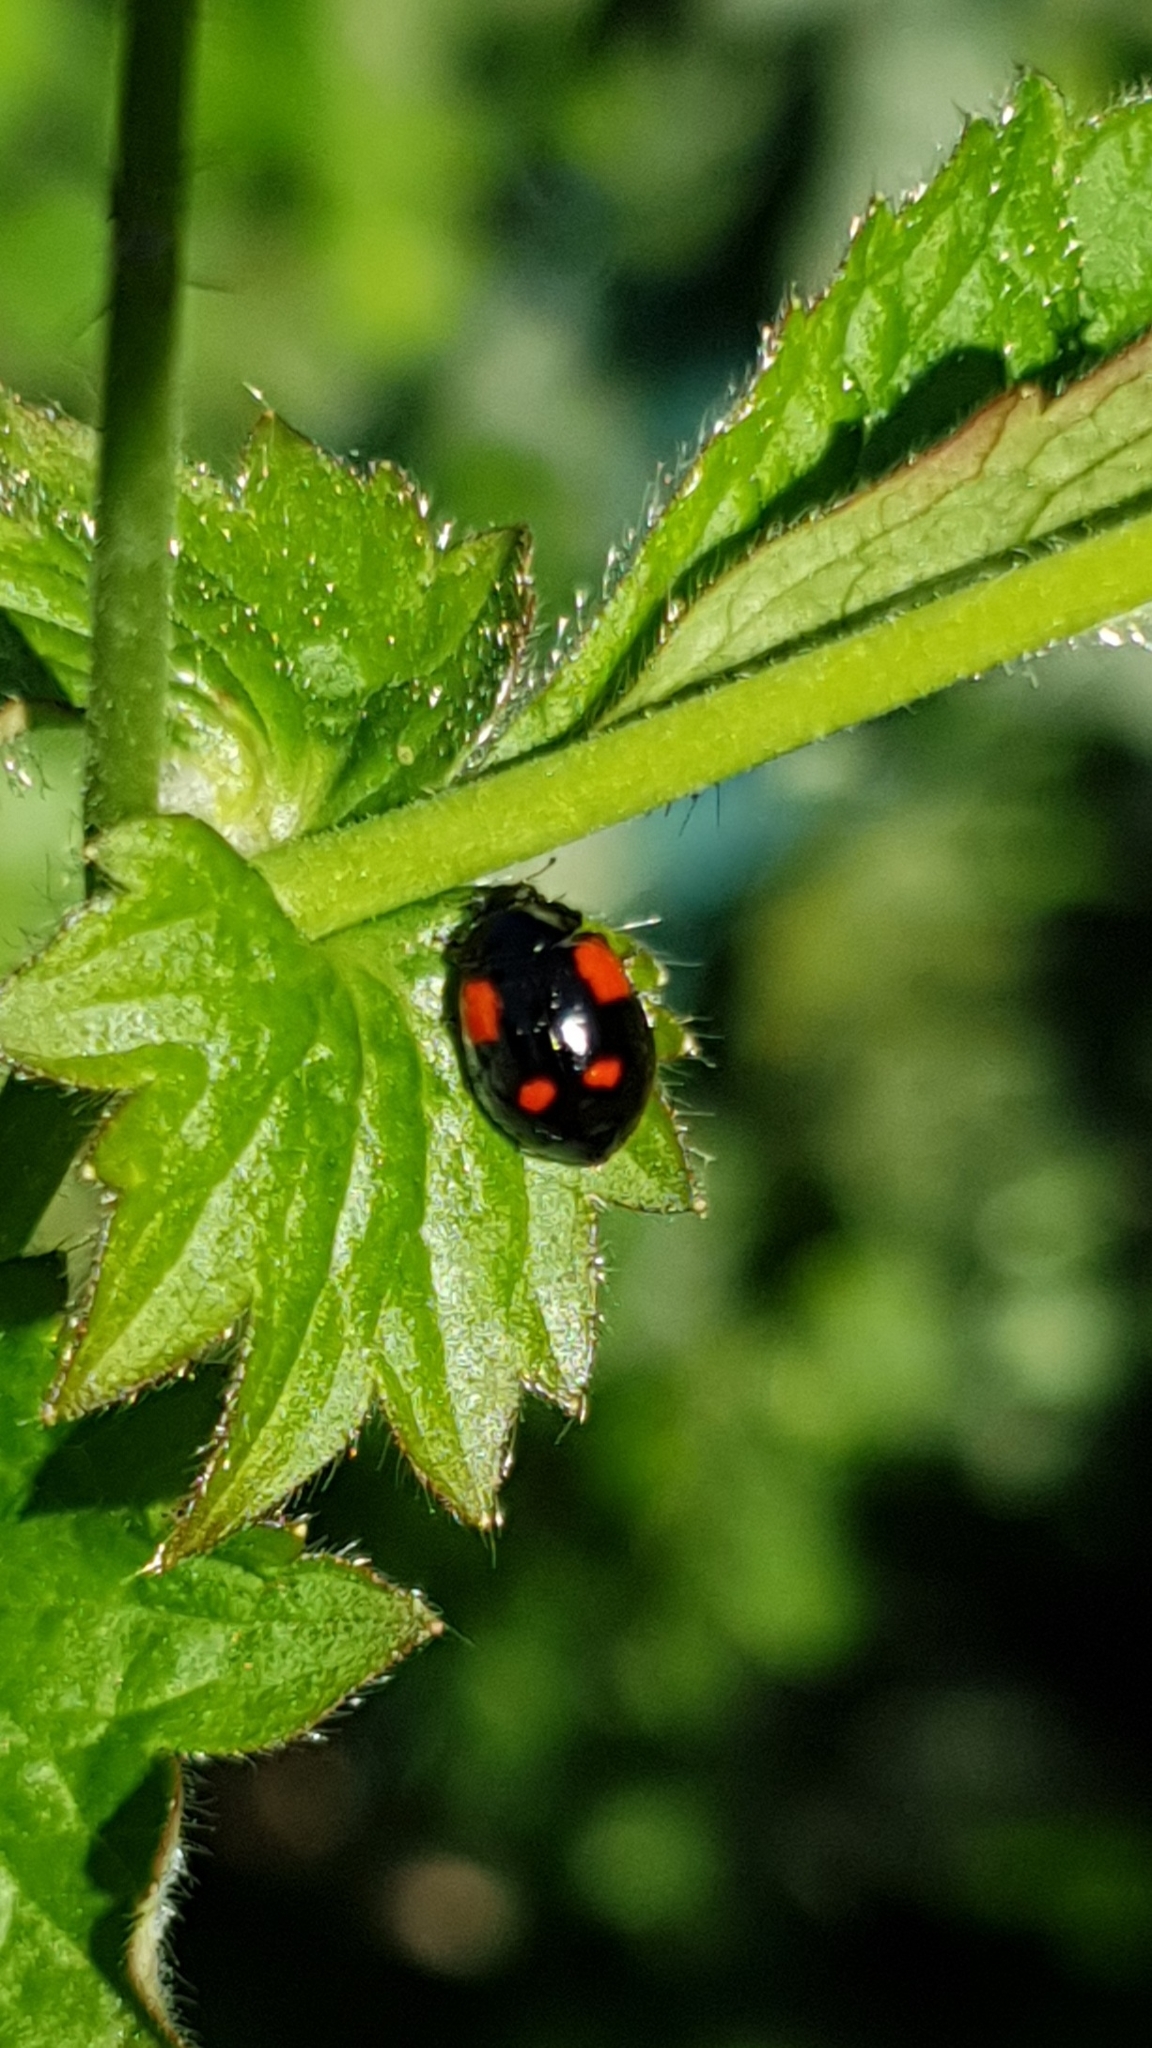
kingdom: Animalia
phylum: Arthropoda
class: Insecta
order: Coleoptera
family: Coccinellidae
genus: Adalia
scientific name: Adalia bipunctata
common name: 2-spot ladybird
